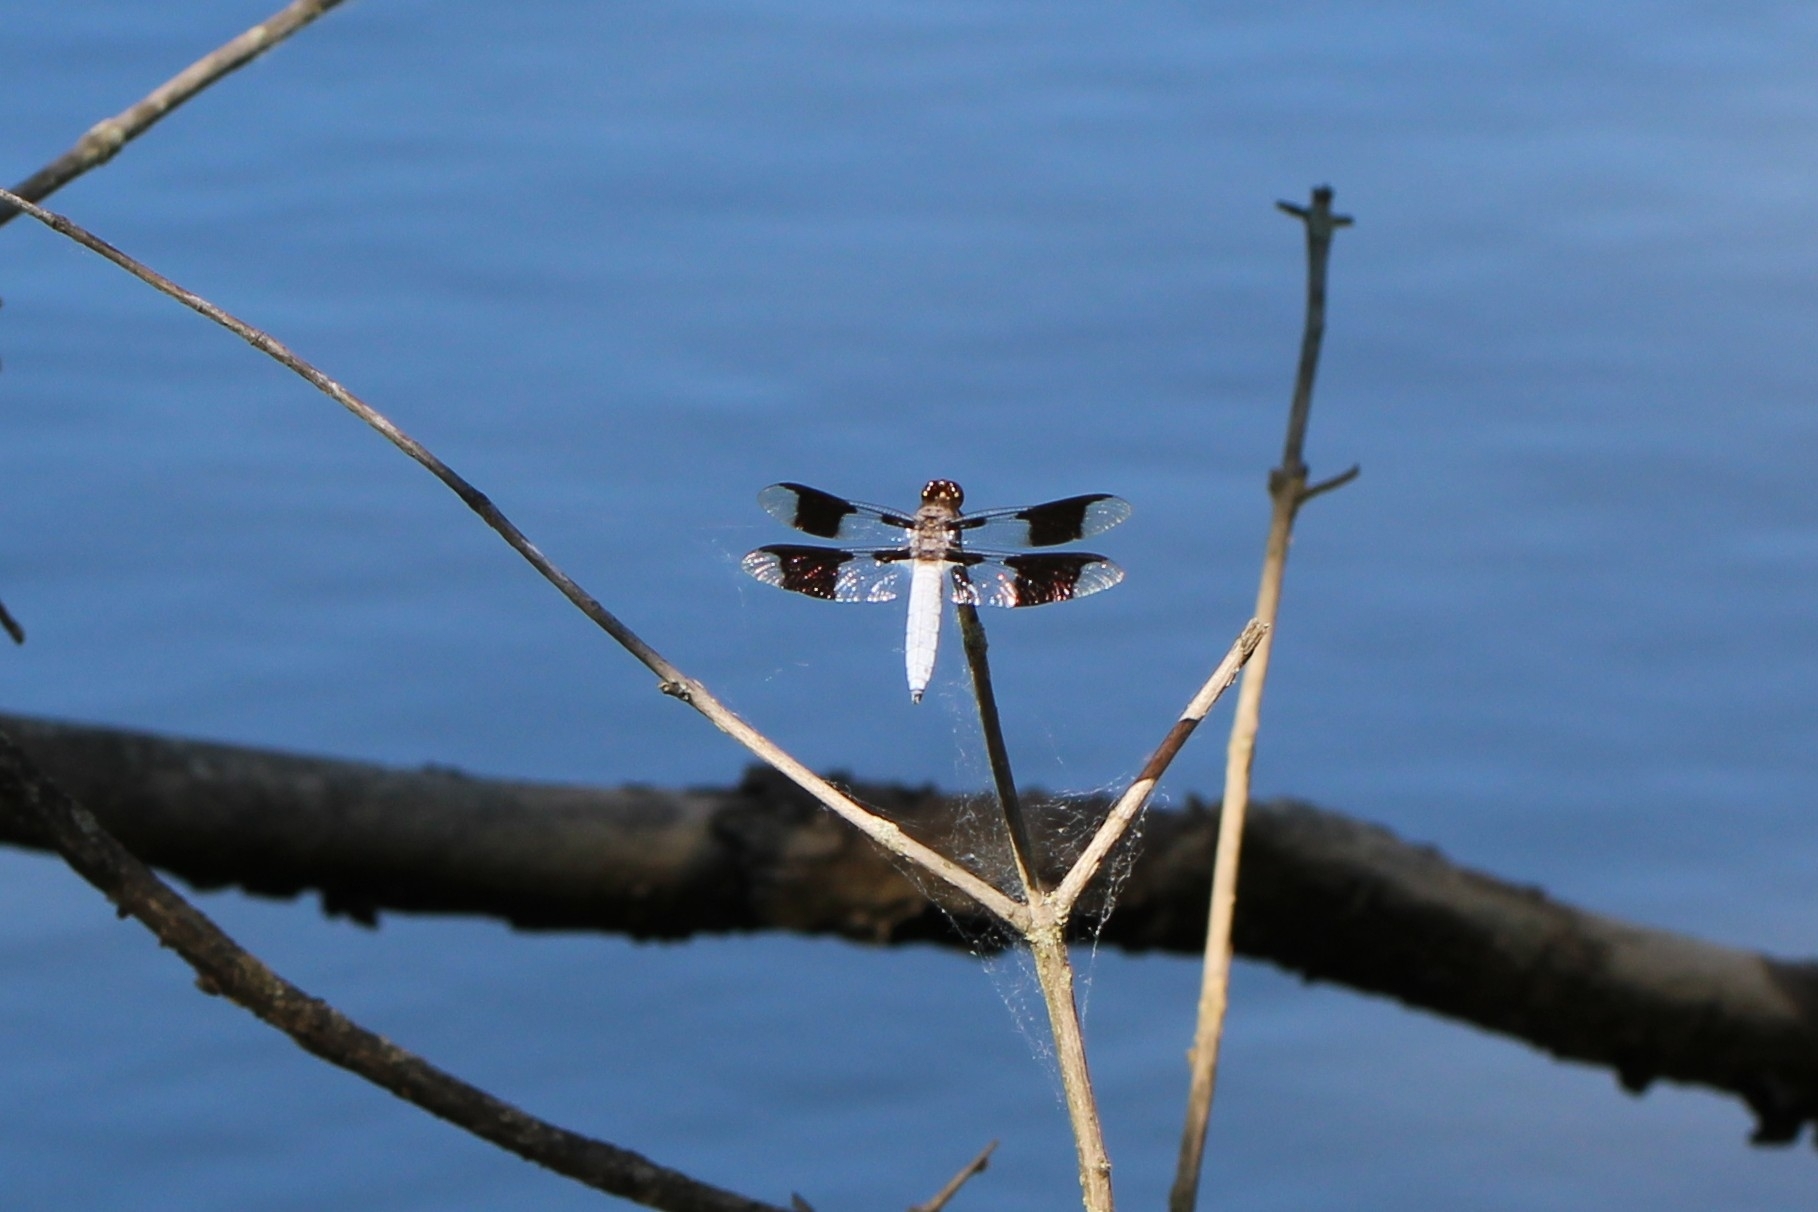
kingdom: Animalia
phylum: Arthropoda
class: Insecta
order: Odonata
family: Libellulidae
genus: Plathemis
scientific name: Plathemis lydia
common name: Common whitetail
